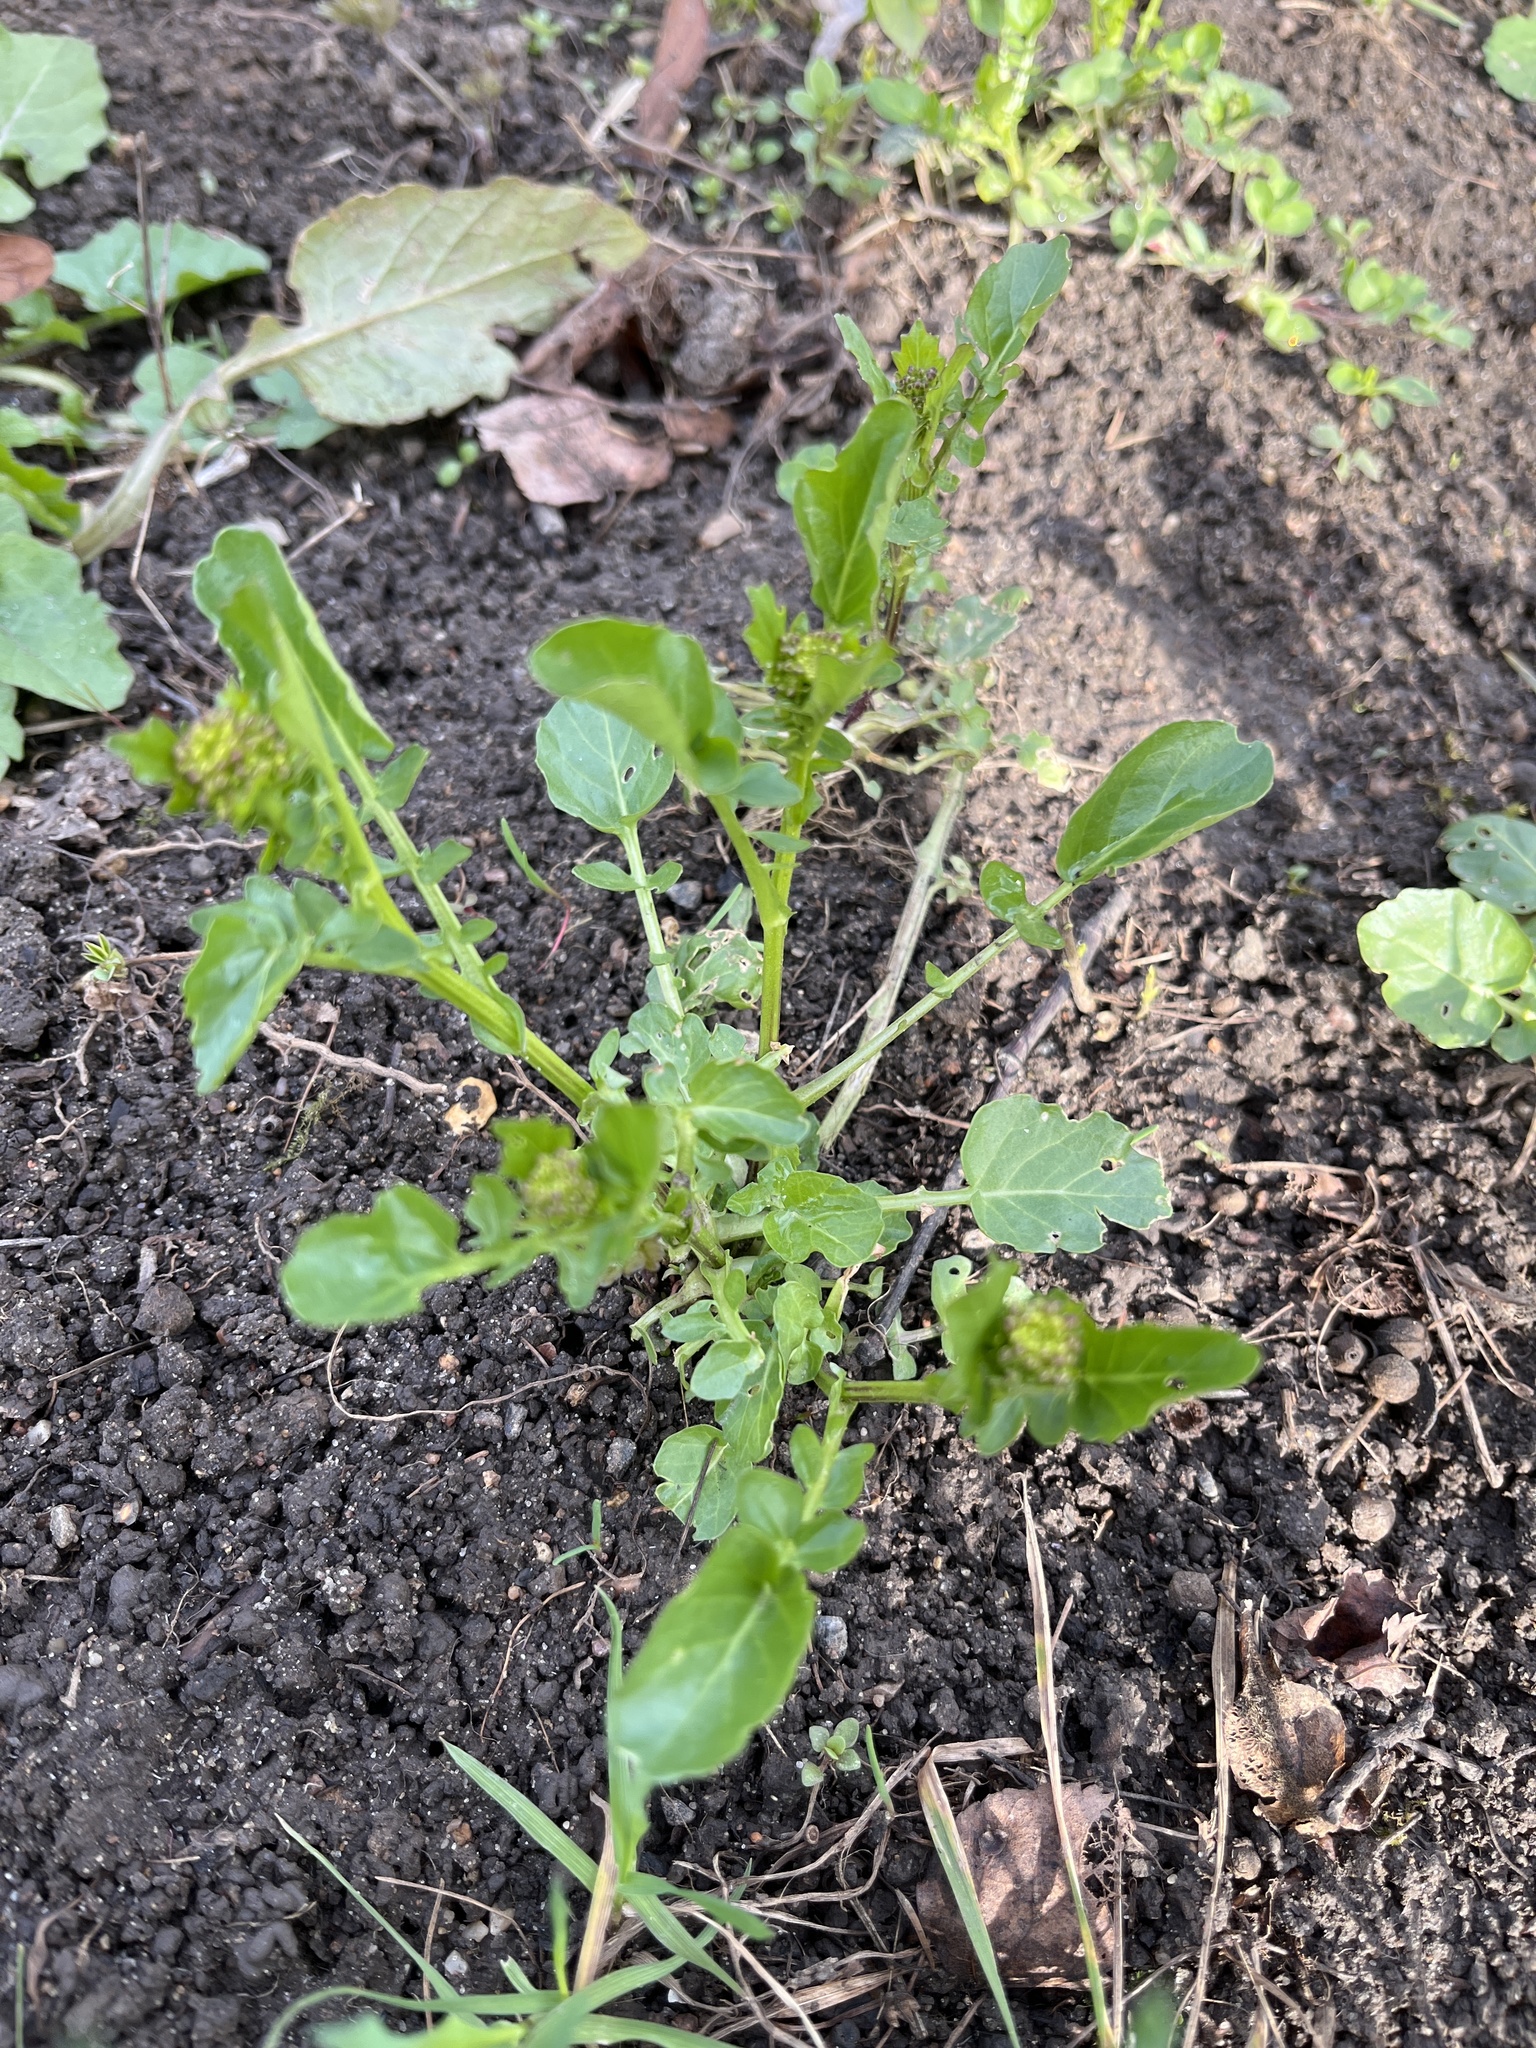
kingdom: Plantae
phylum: Tracheophyta
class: Magnoliopsida
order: Brassicales
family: Brassicaceae
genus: Barbarea
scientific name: Barbarea vulgaris
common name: Cressy-greens
